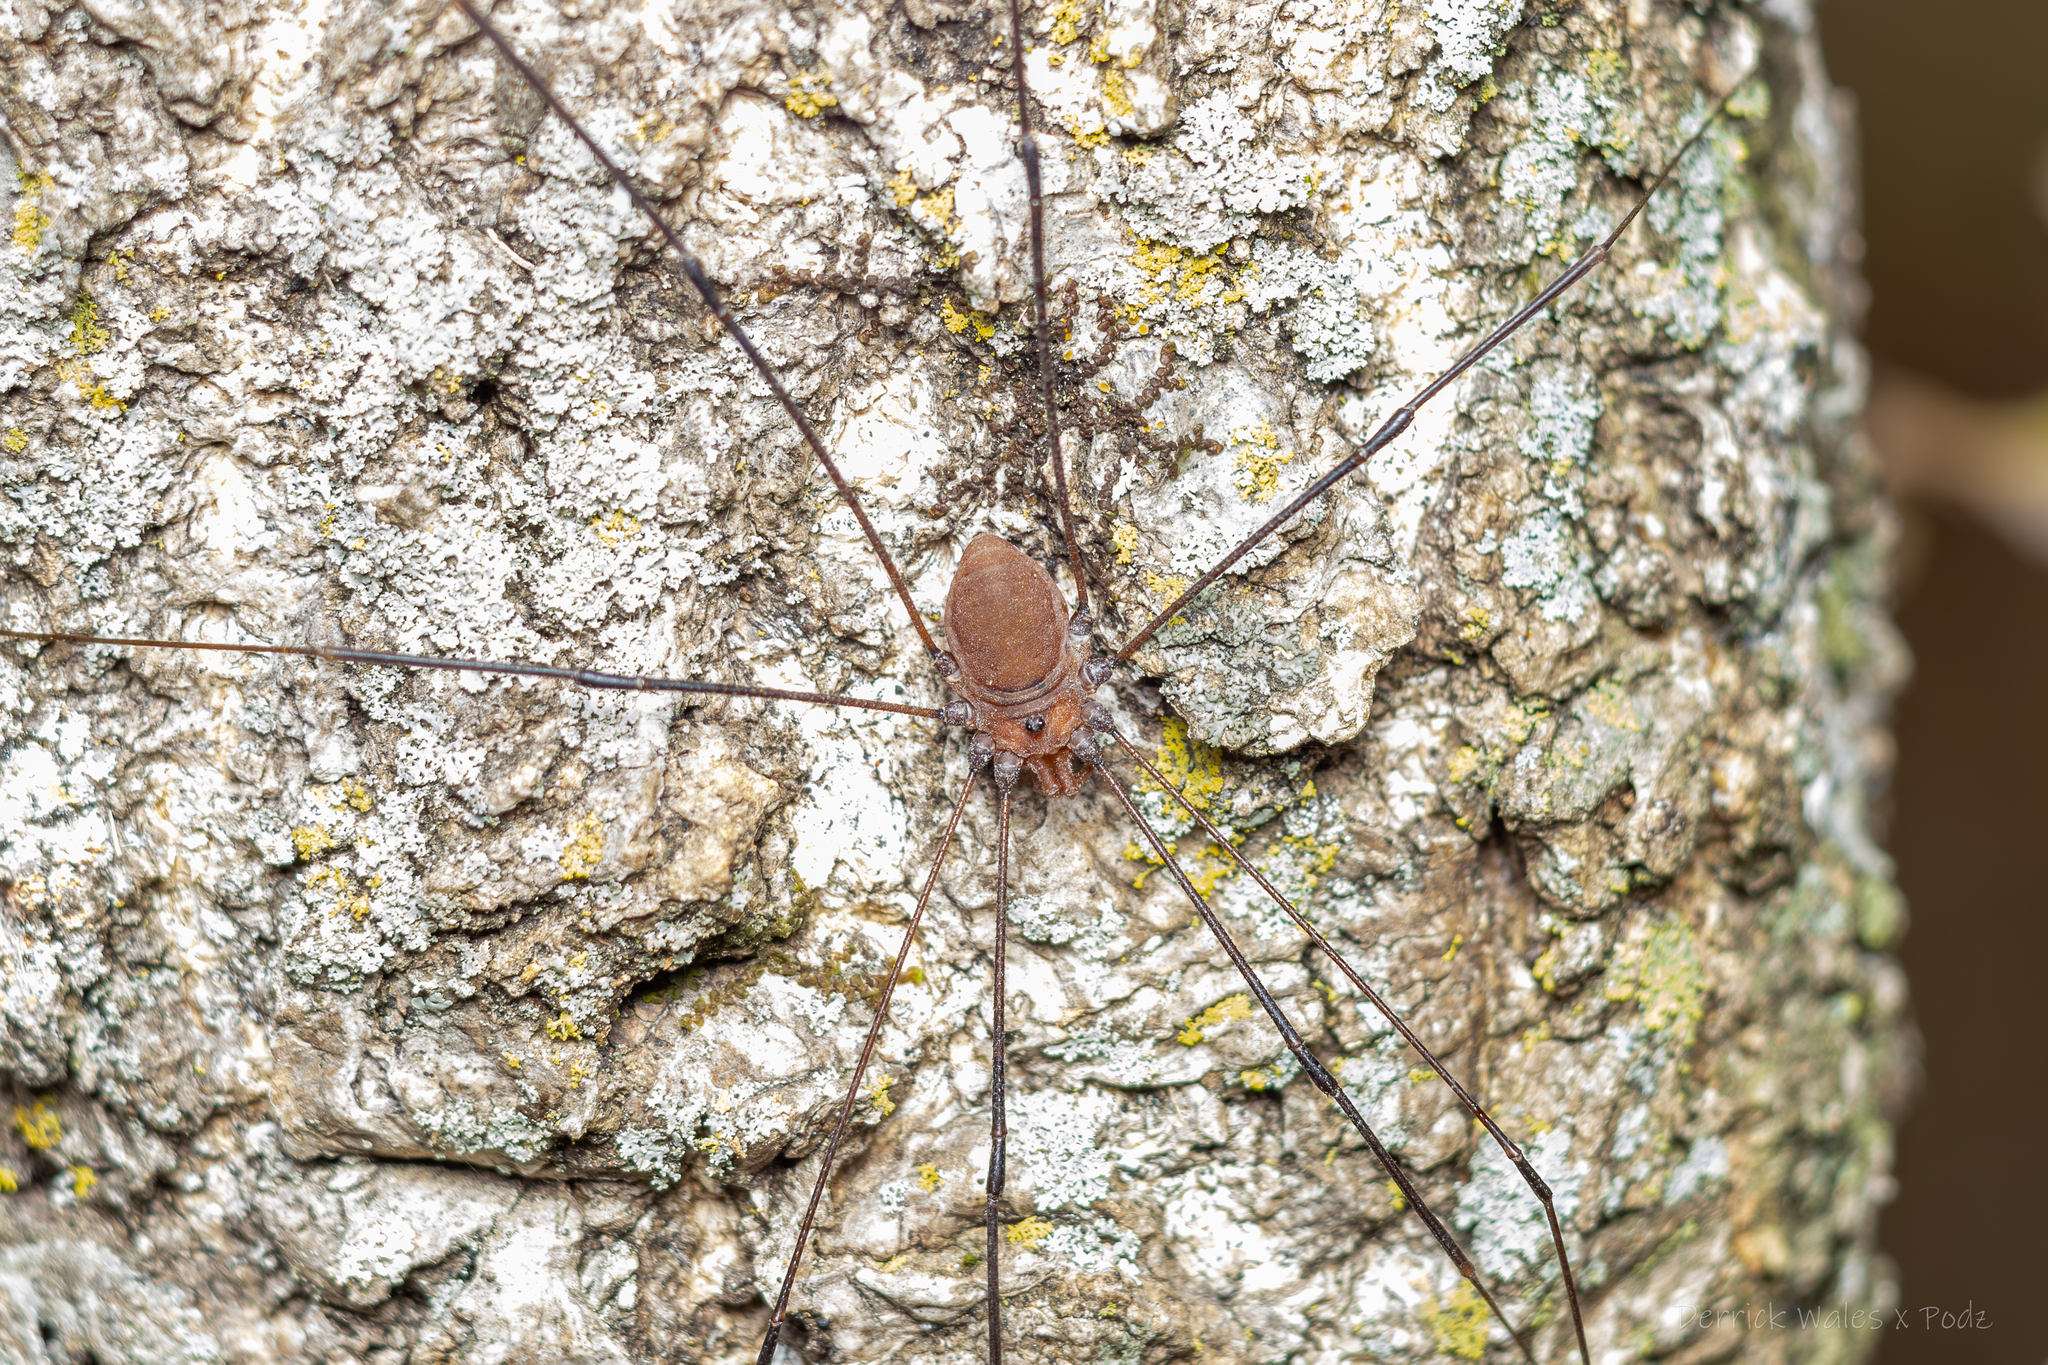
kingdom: Animalia
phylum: Arthropoda
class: Arachnida
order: Opiliones
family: Sclerosomatidae
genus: Leiobunum
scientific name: Leiobunum uxorium
